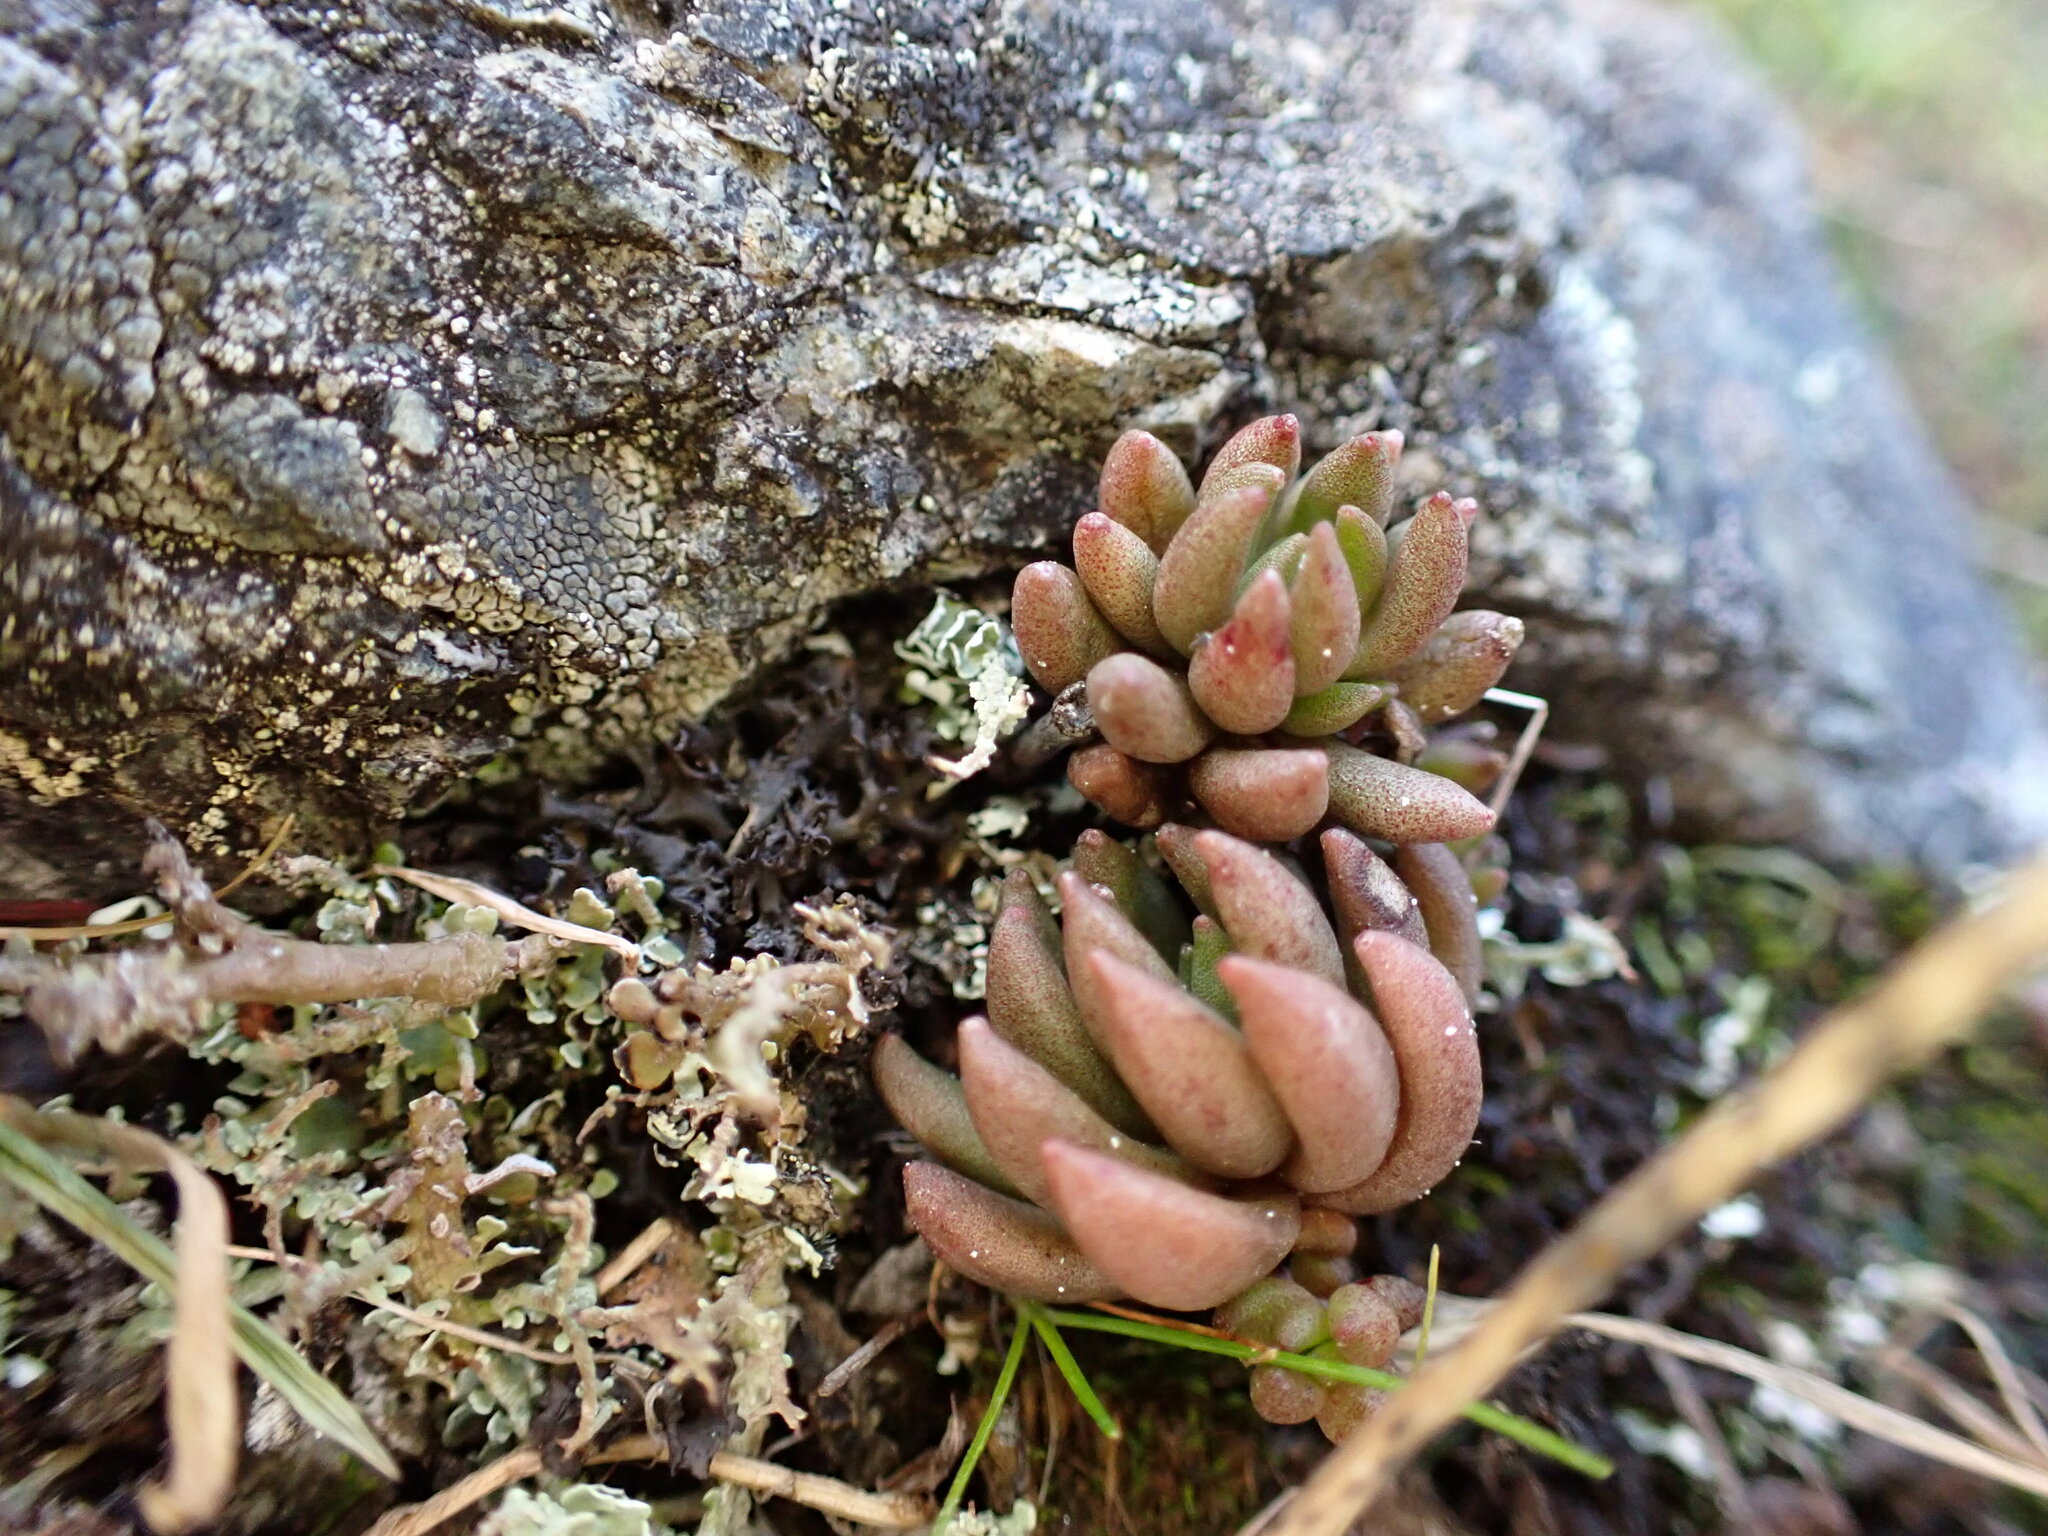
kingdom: Plantae
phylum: Tracheophyta
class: Magnoliopsida
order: Saxifragales
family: Crassulaceae
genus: Sedum
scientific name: Sedum lanceolatum
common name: Common stonecrop
